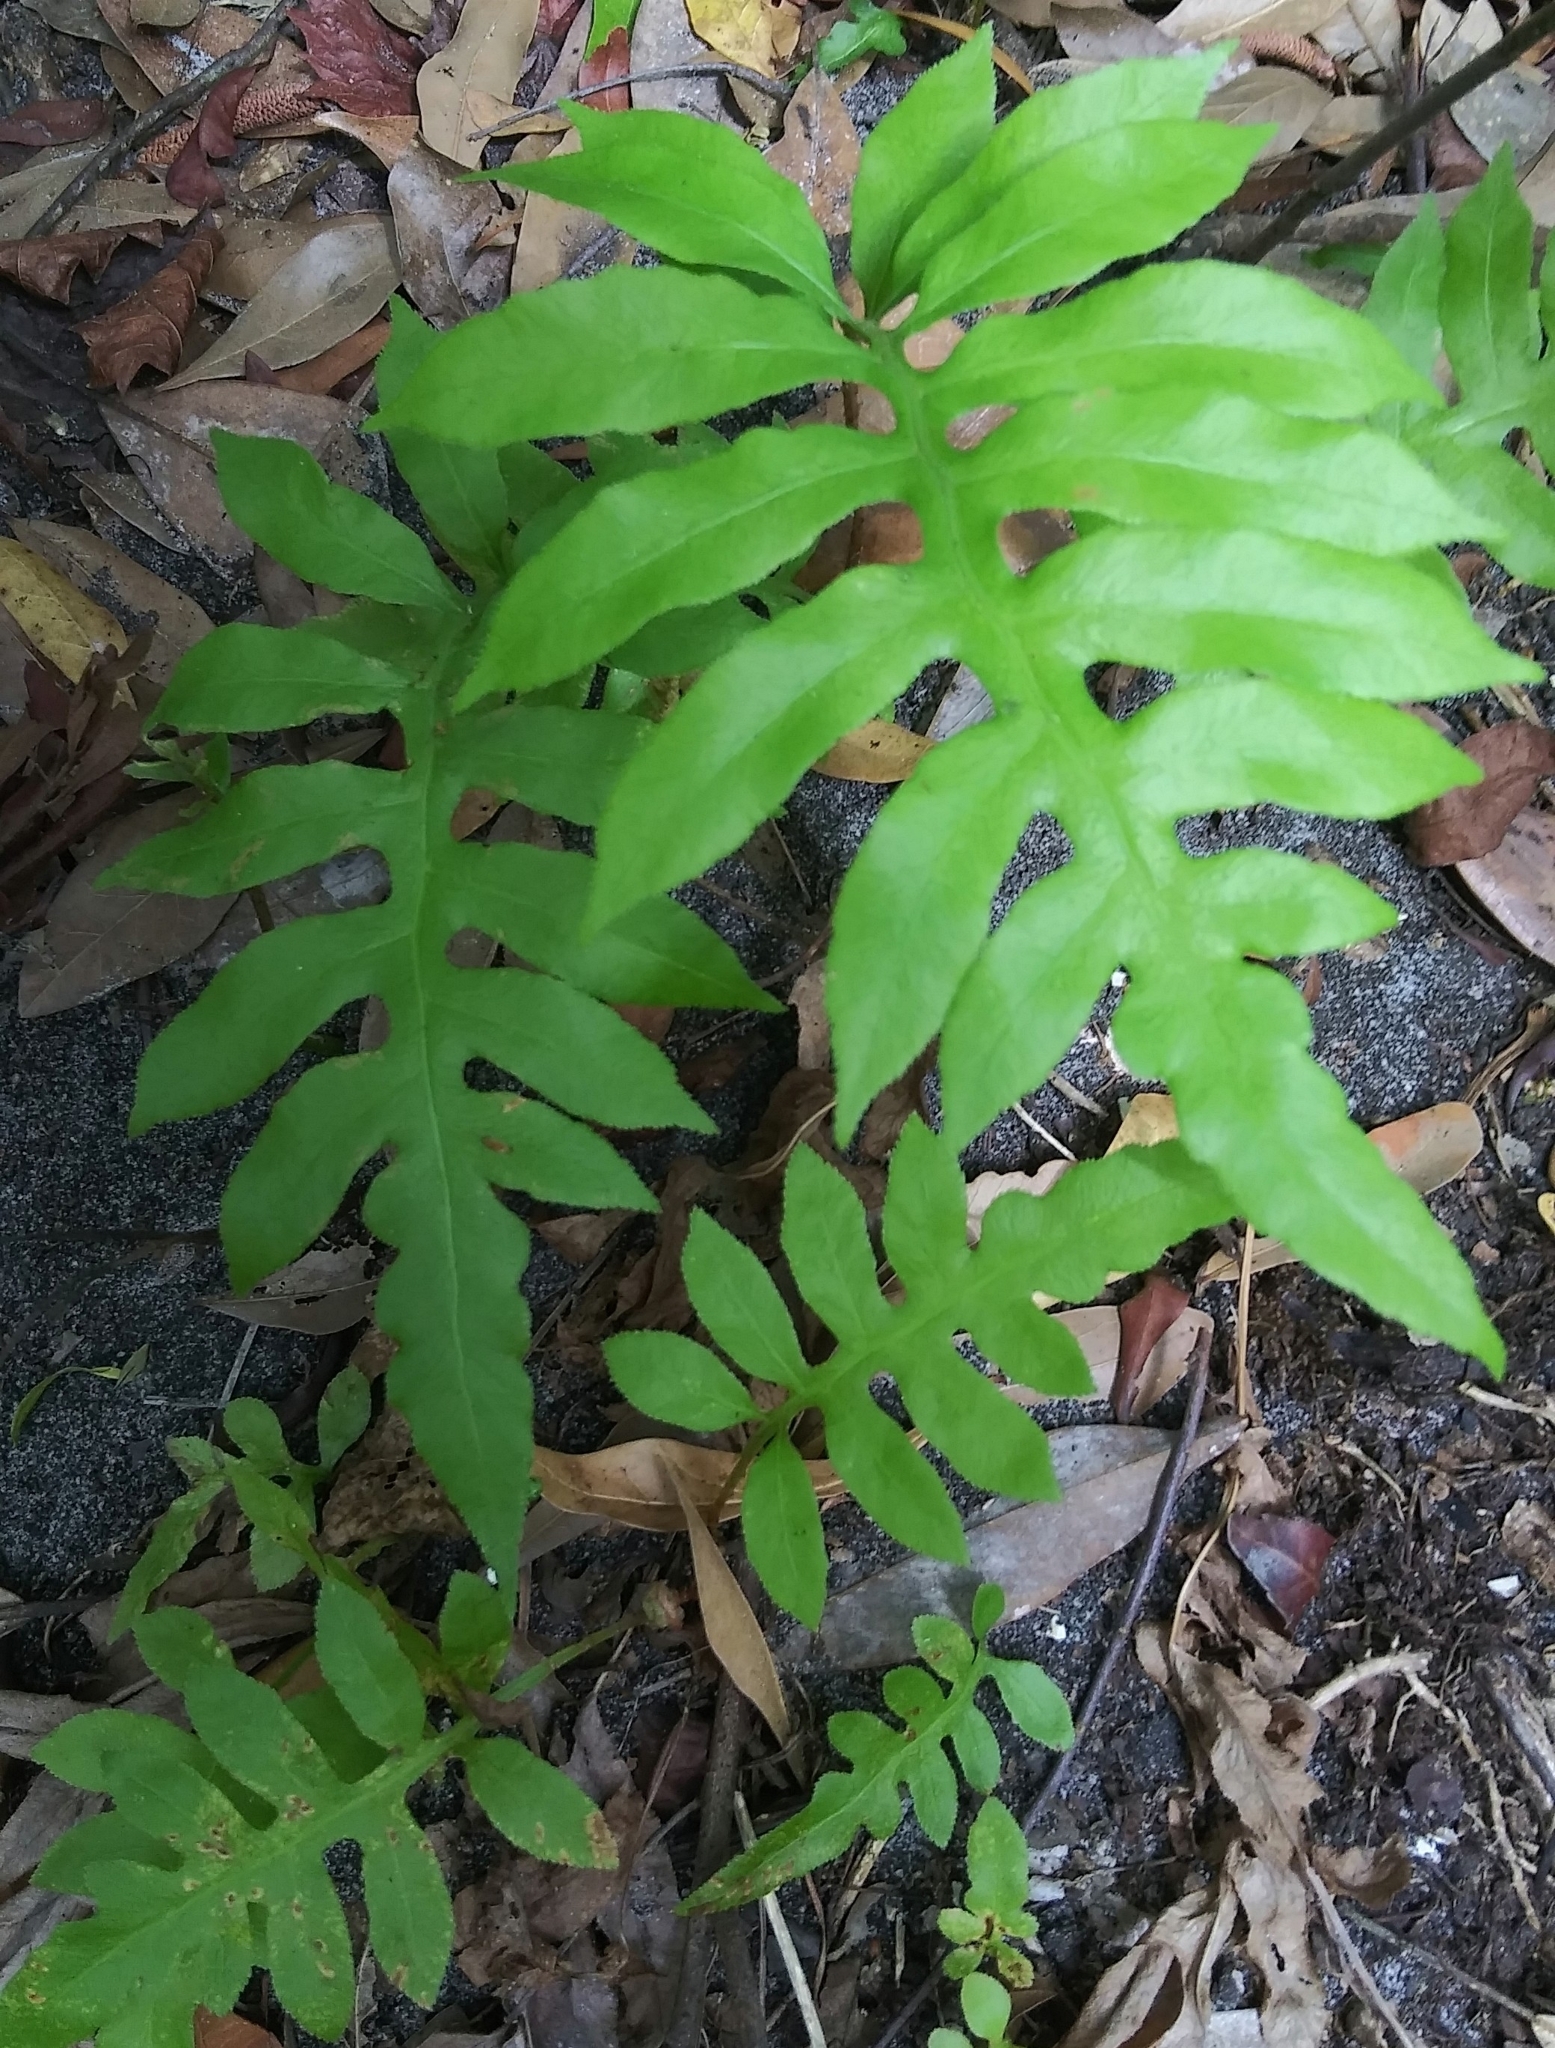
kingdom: Plantae
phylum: Tracheophyta
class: Polypodiopsida
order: Polypodiales
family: Blechnaceae
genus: Lorinseria
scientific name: Lorinseria areolata
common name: Dwarf chain fern
